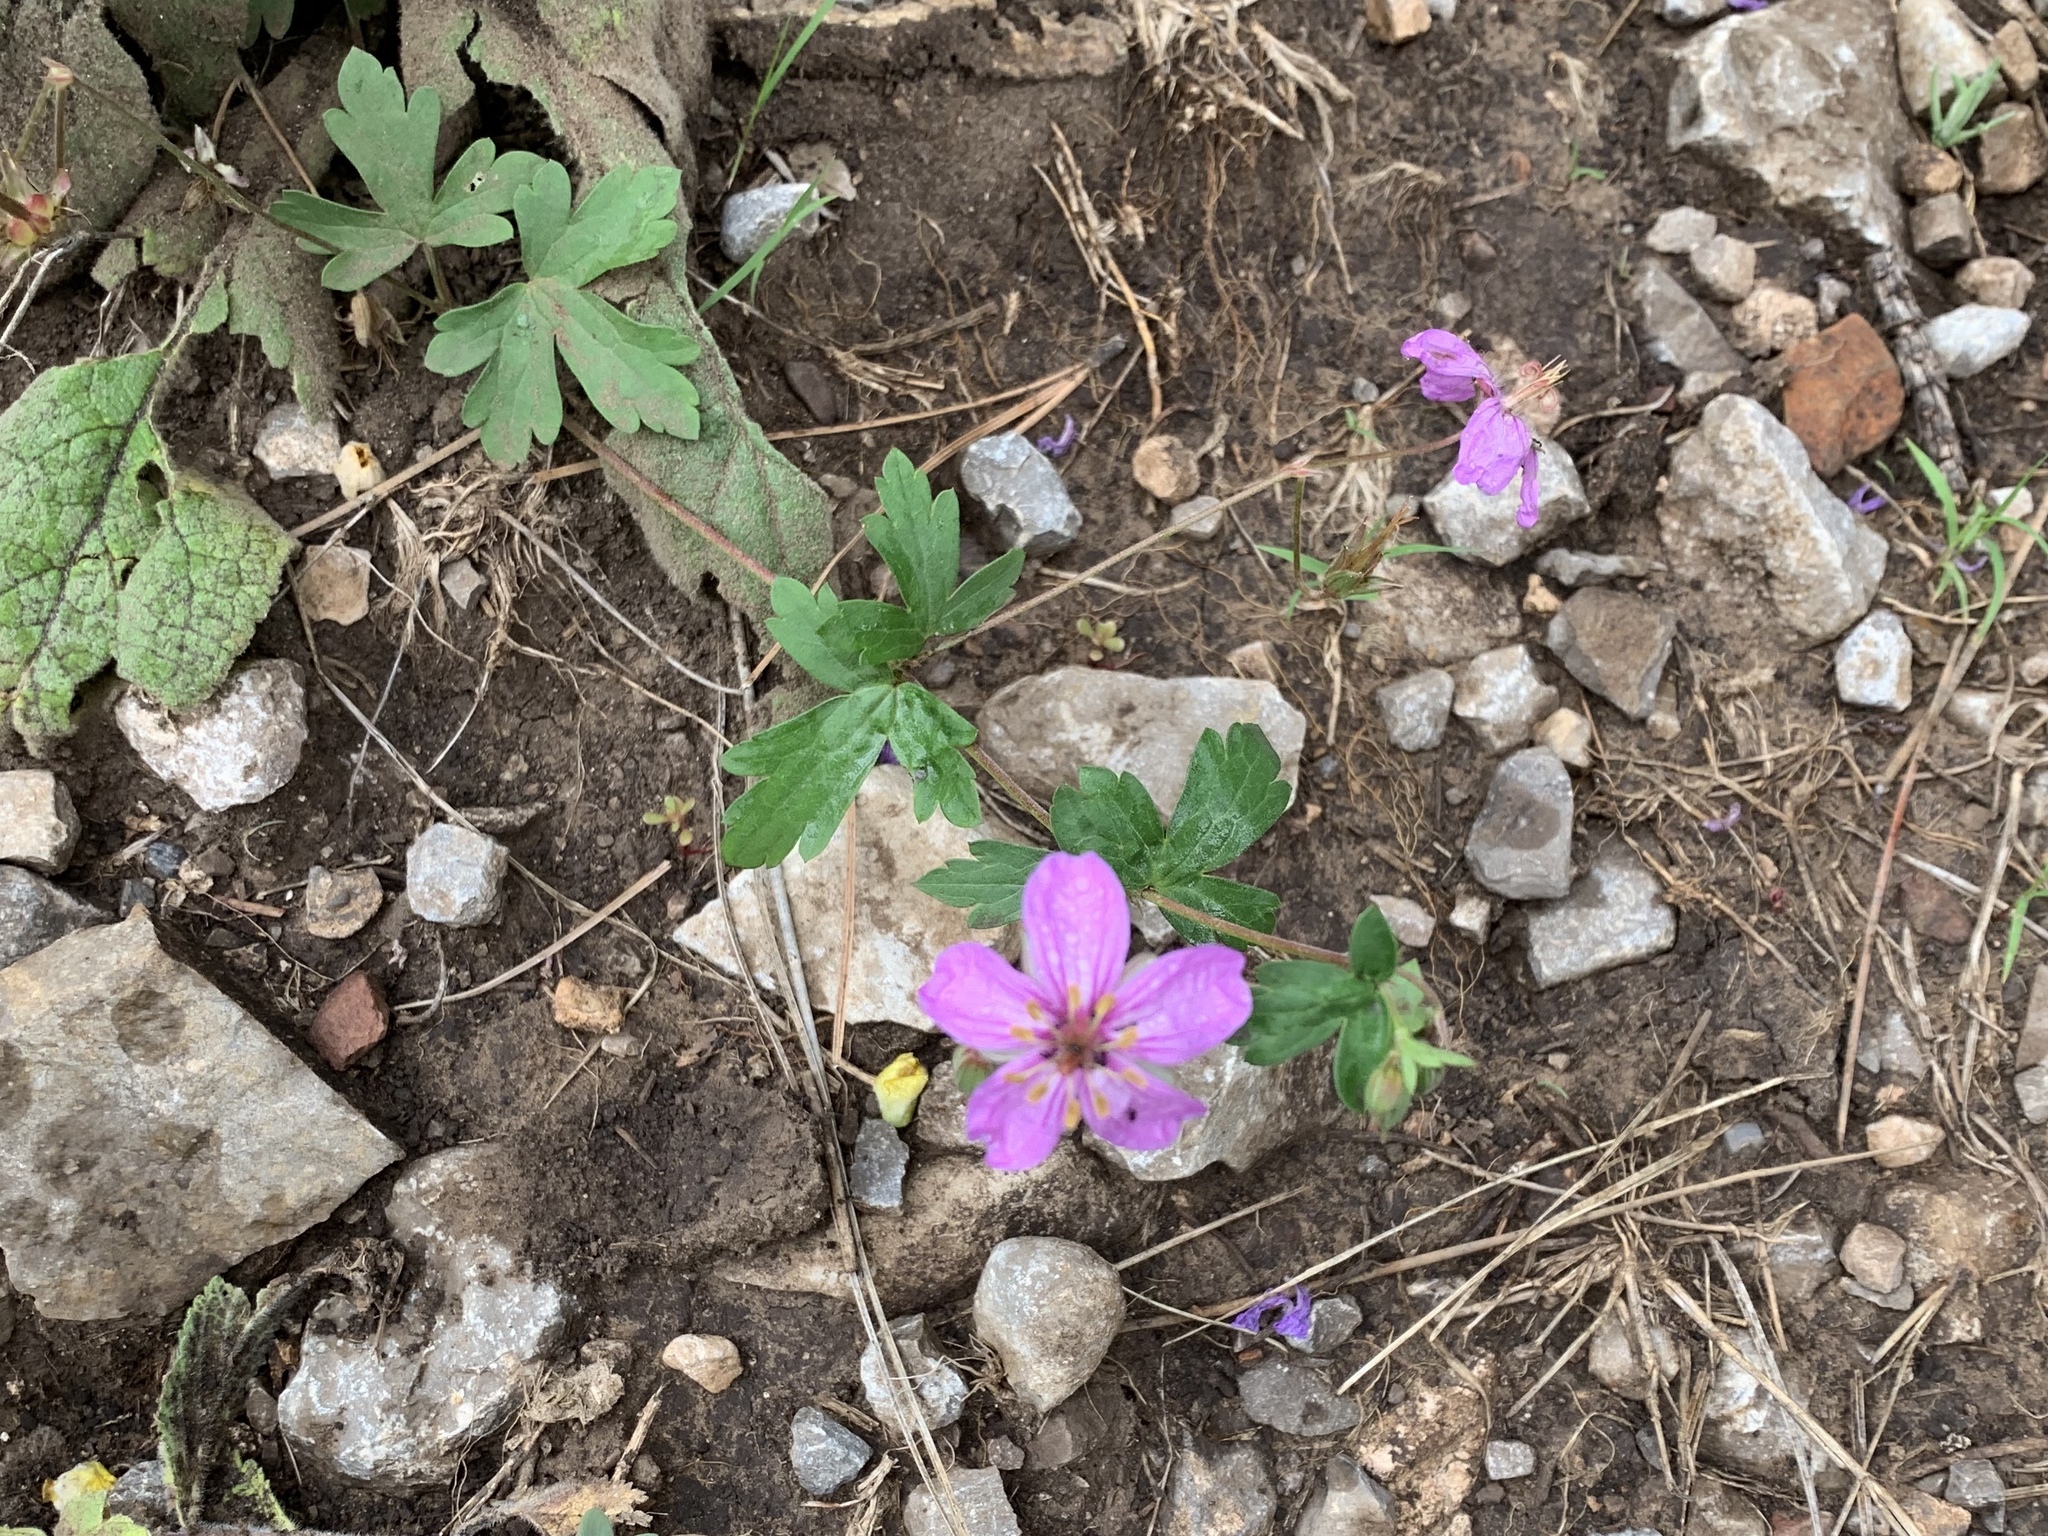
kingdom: Plantae
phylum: Tracheophyta
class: Magnoliopsida
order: Geraniales
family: Geraniaceae
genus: Geranium
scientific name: Geranium caespitosum
